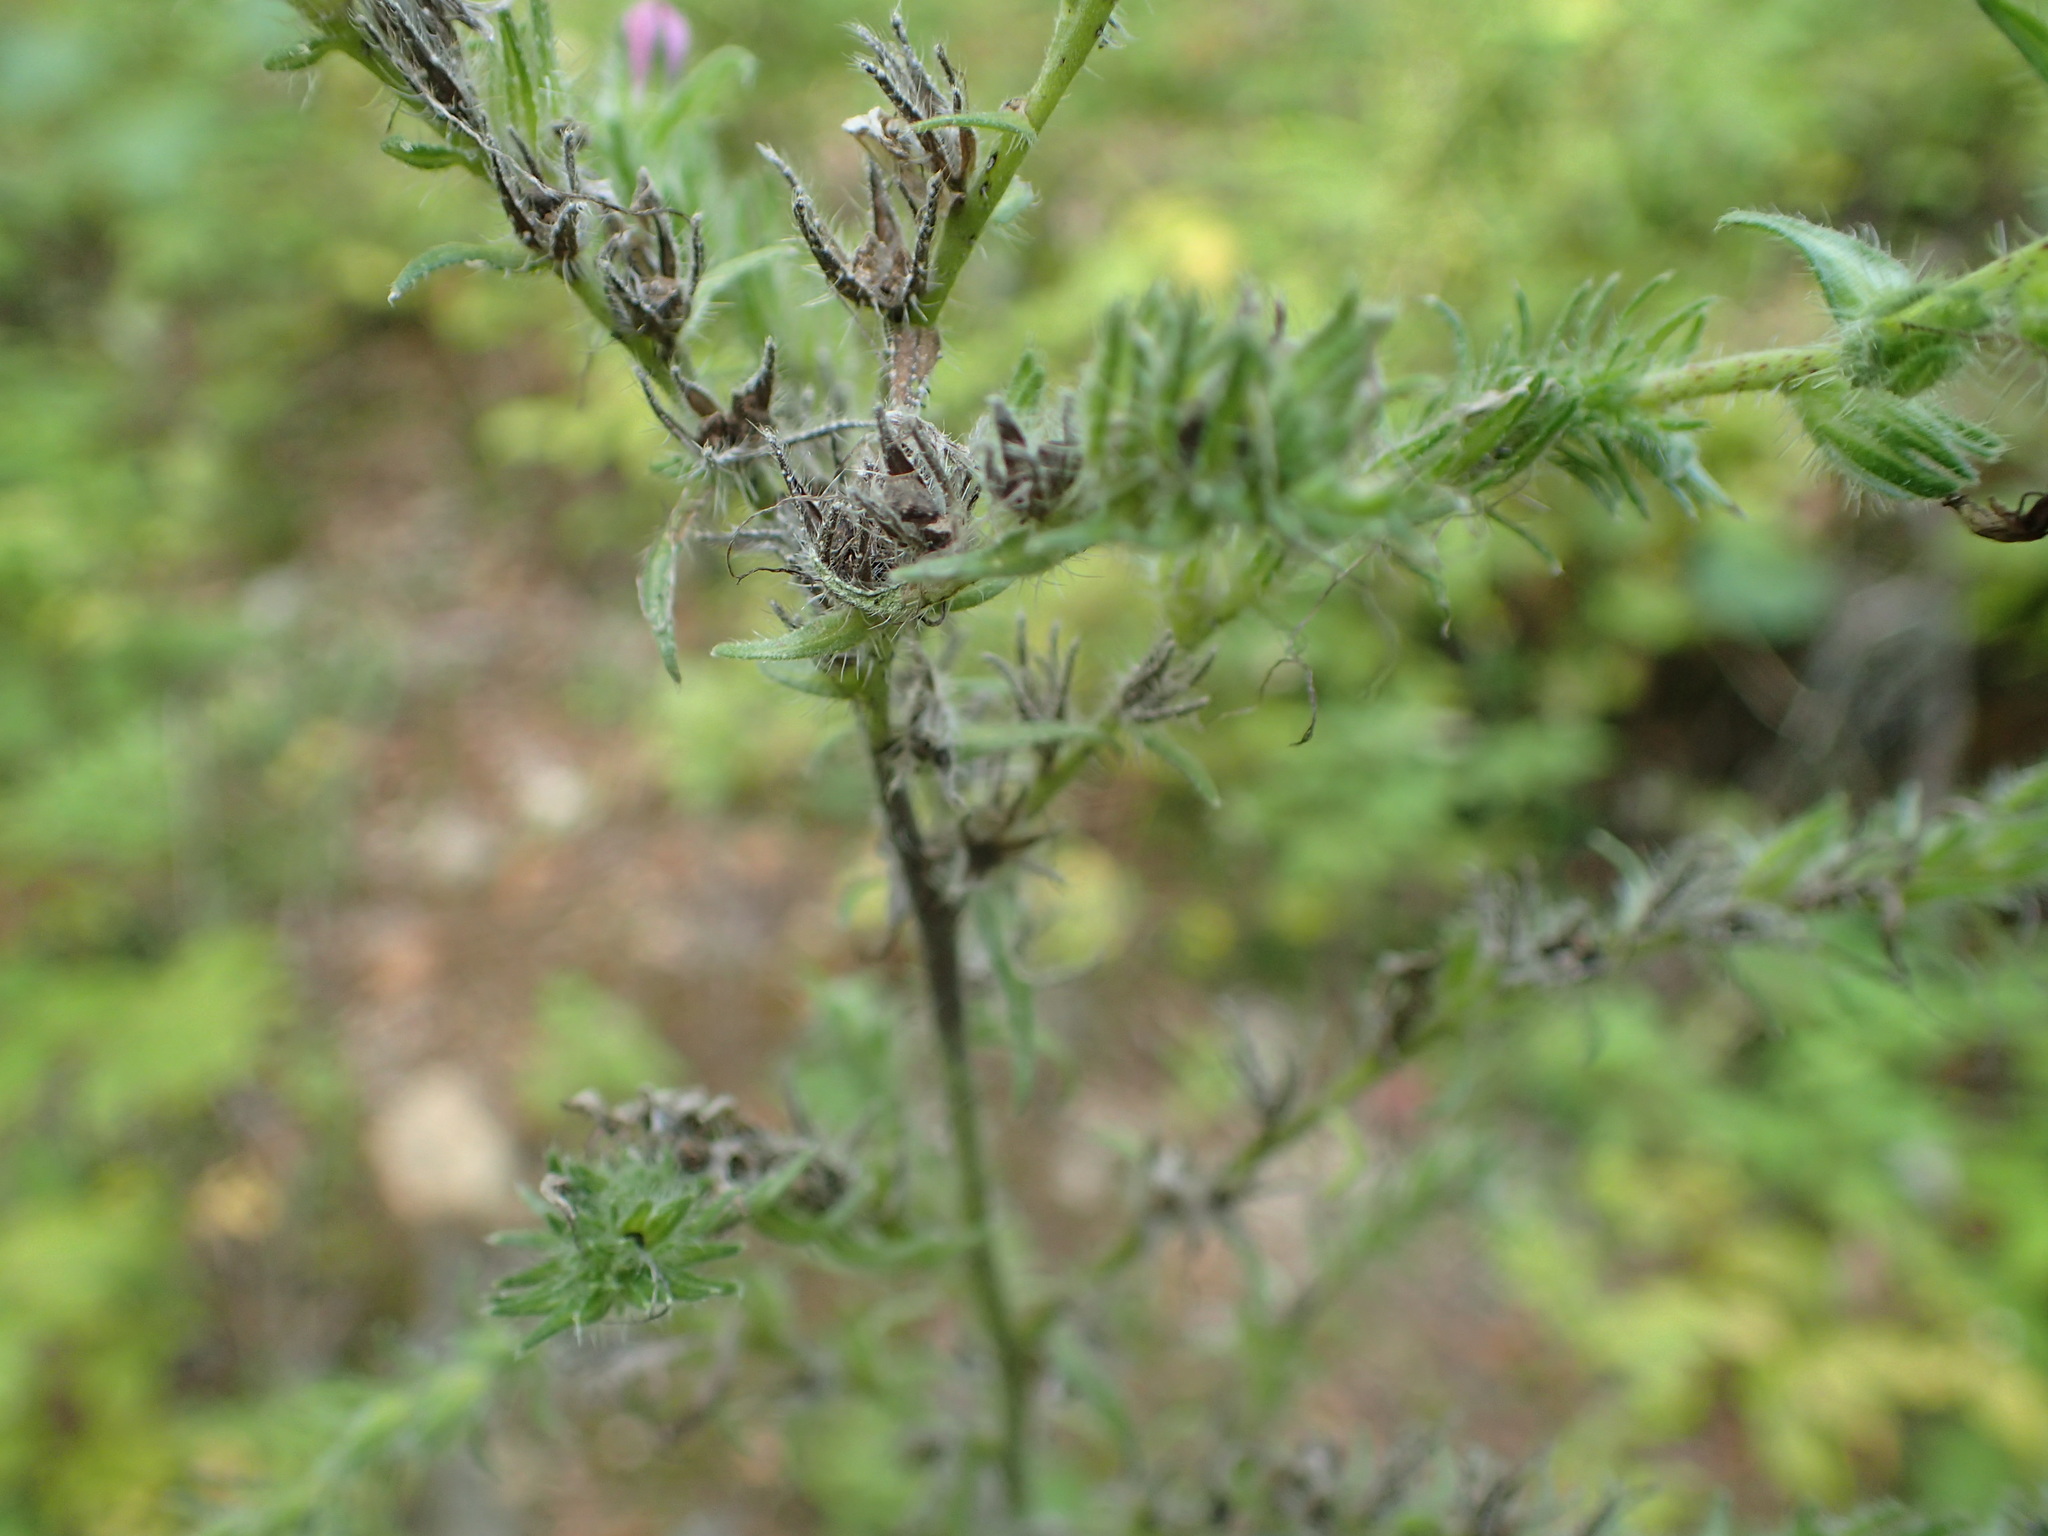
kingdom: Plantae
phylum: Tracheophyta
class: Magnoliopsida
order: Boraginales
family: Boraginaceae
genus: Echium
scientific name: Echium vulgare
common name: Common viper's bugloss
